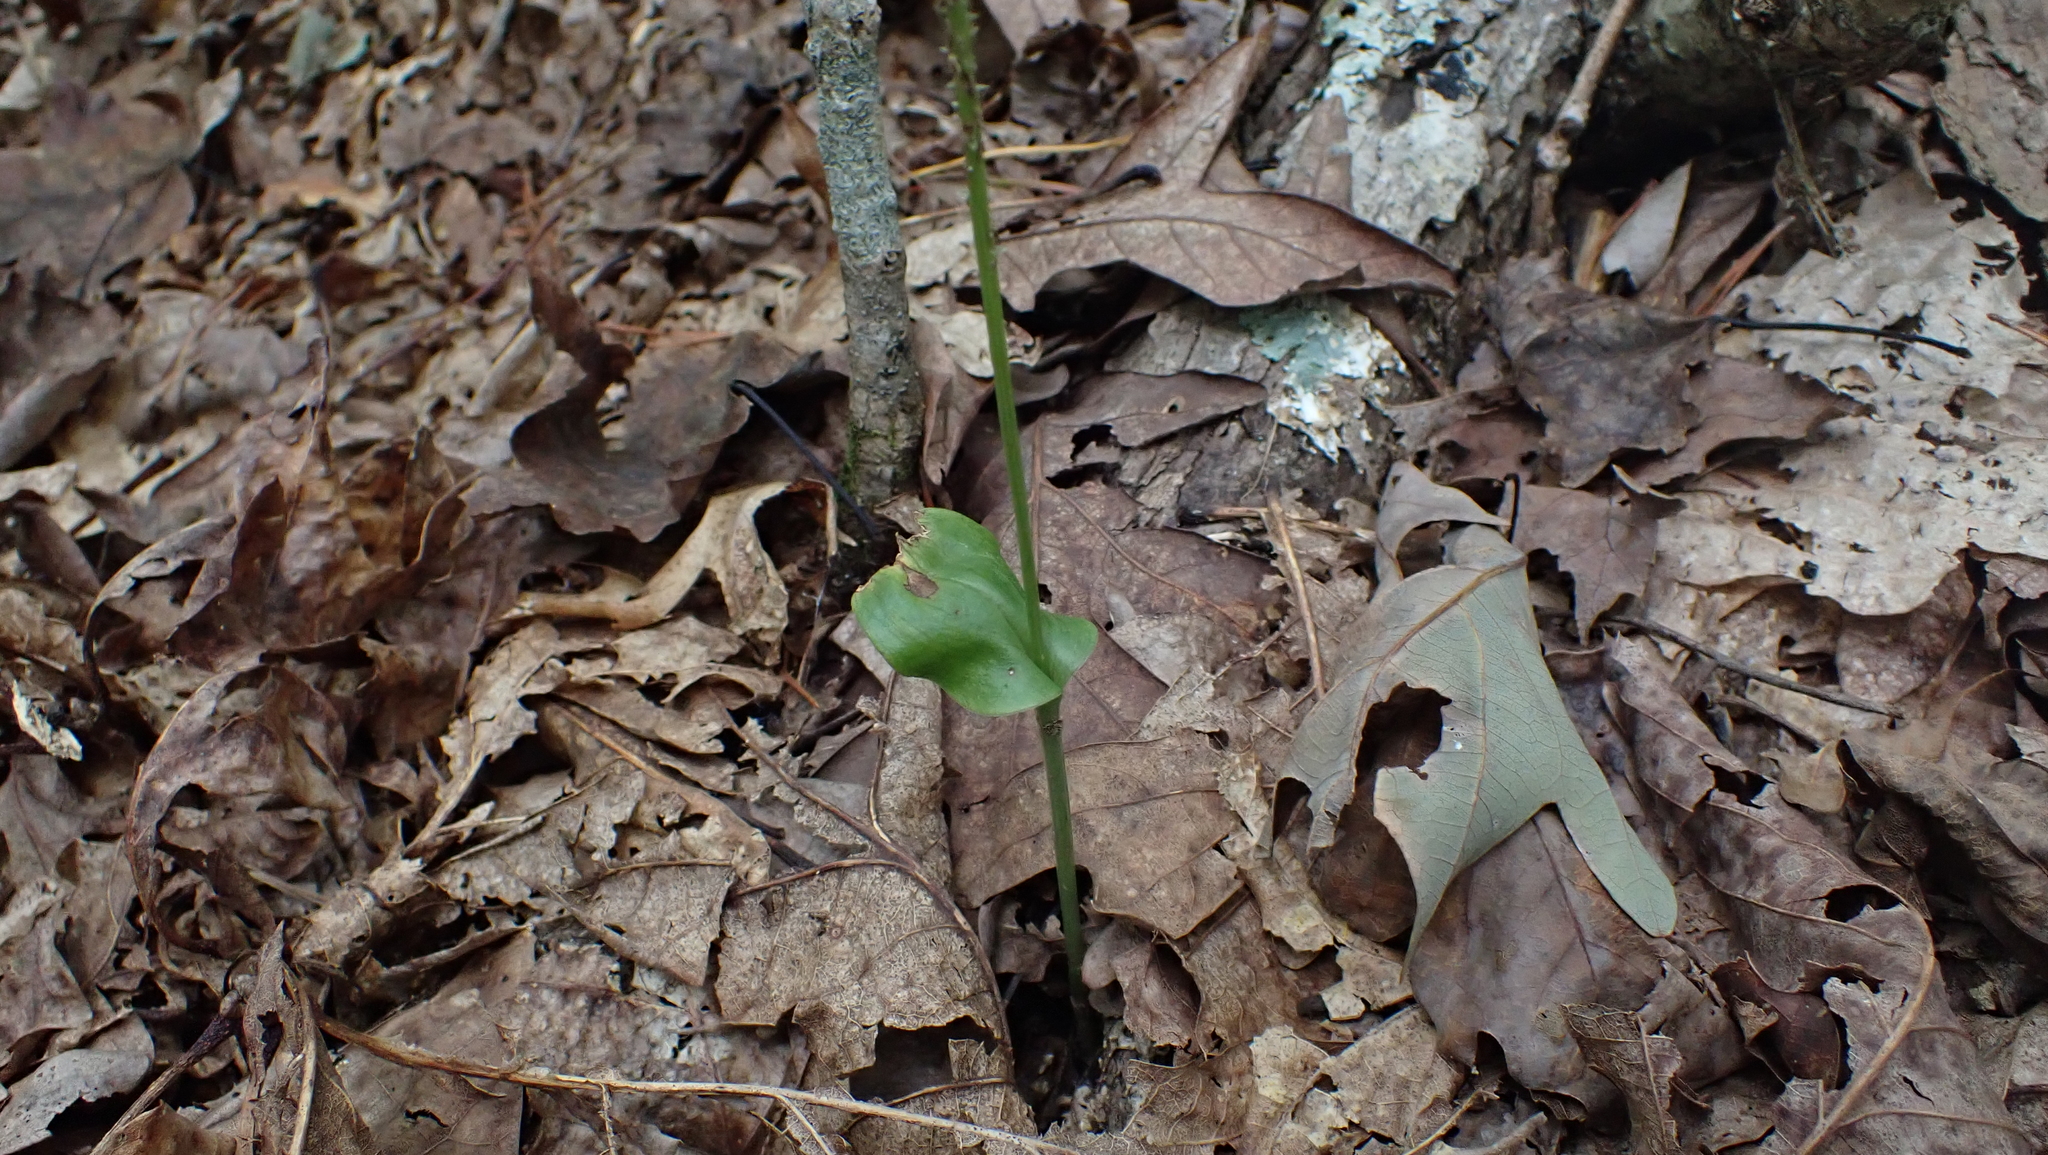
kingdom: Plantae
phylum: Tracheophyta
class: Liliopsida
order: Asparagales
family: Orchidaceae
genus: Malaxis
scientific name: Malaxis unifolia
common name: Green adder's-mouth
